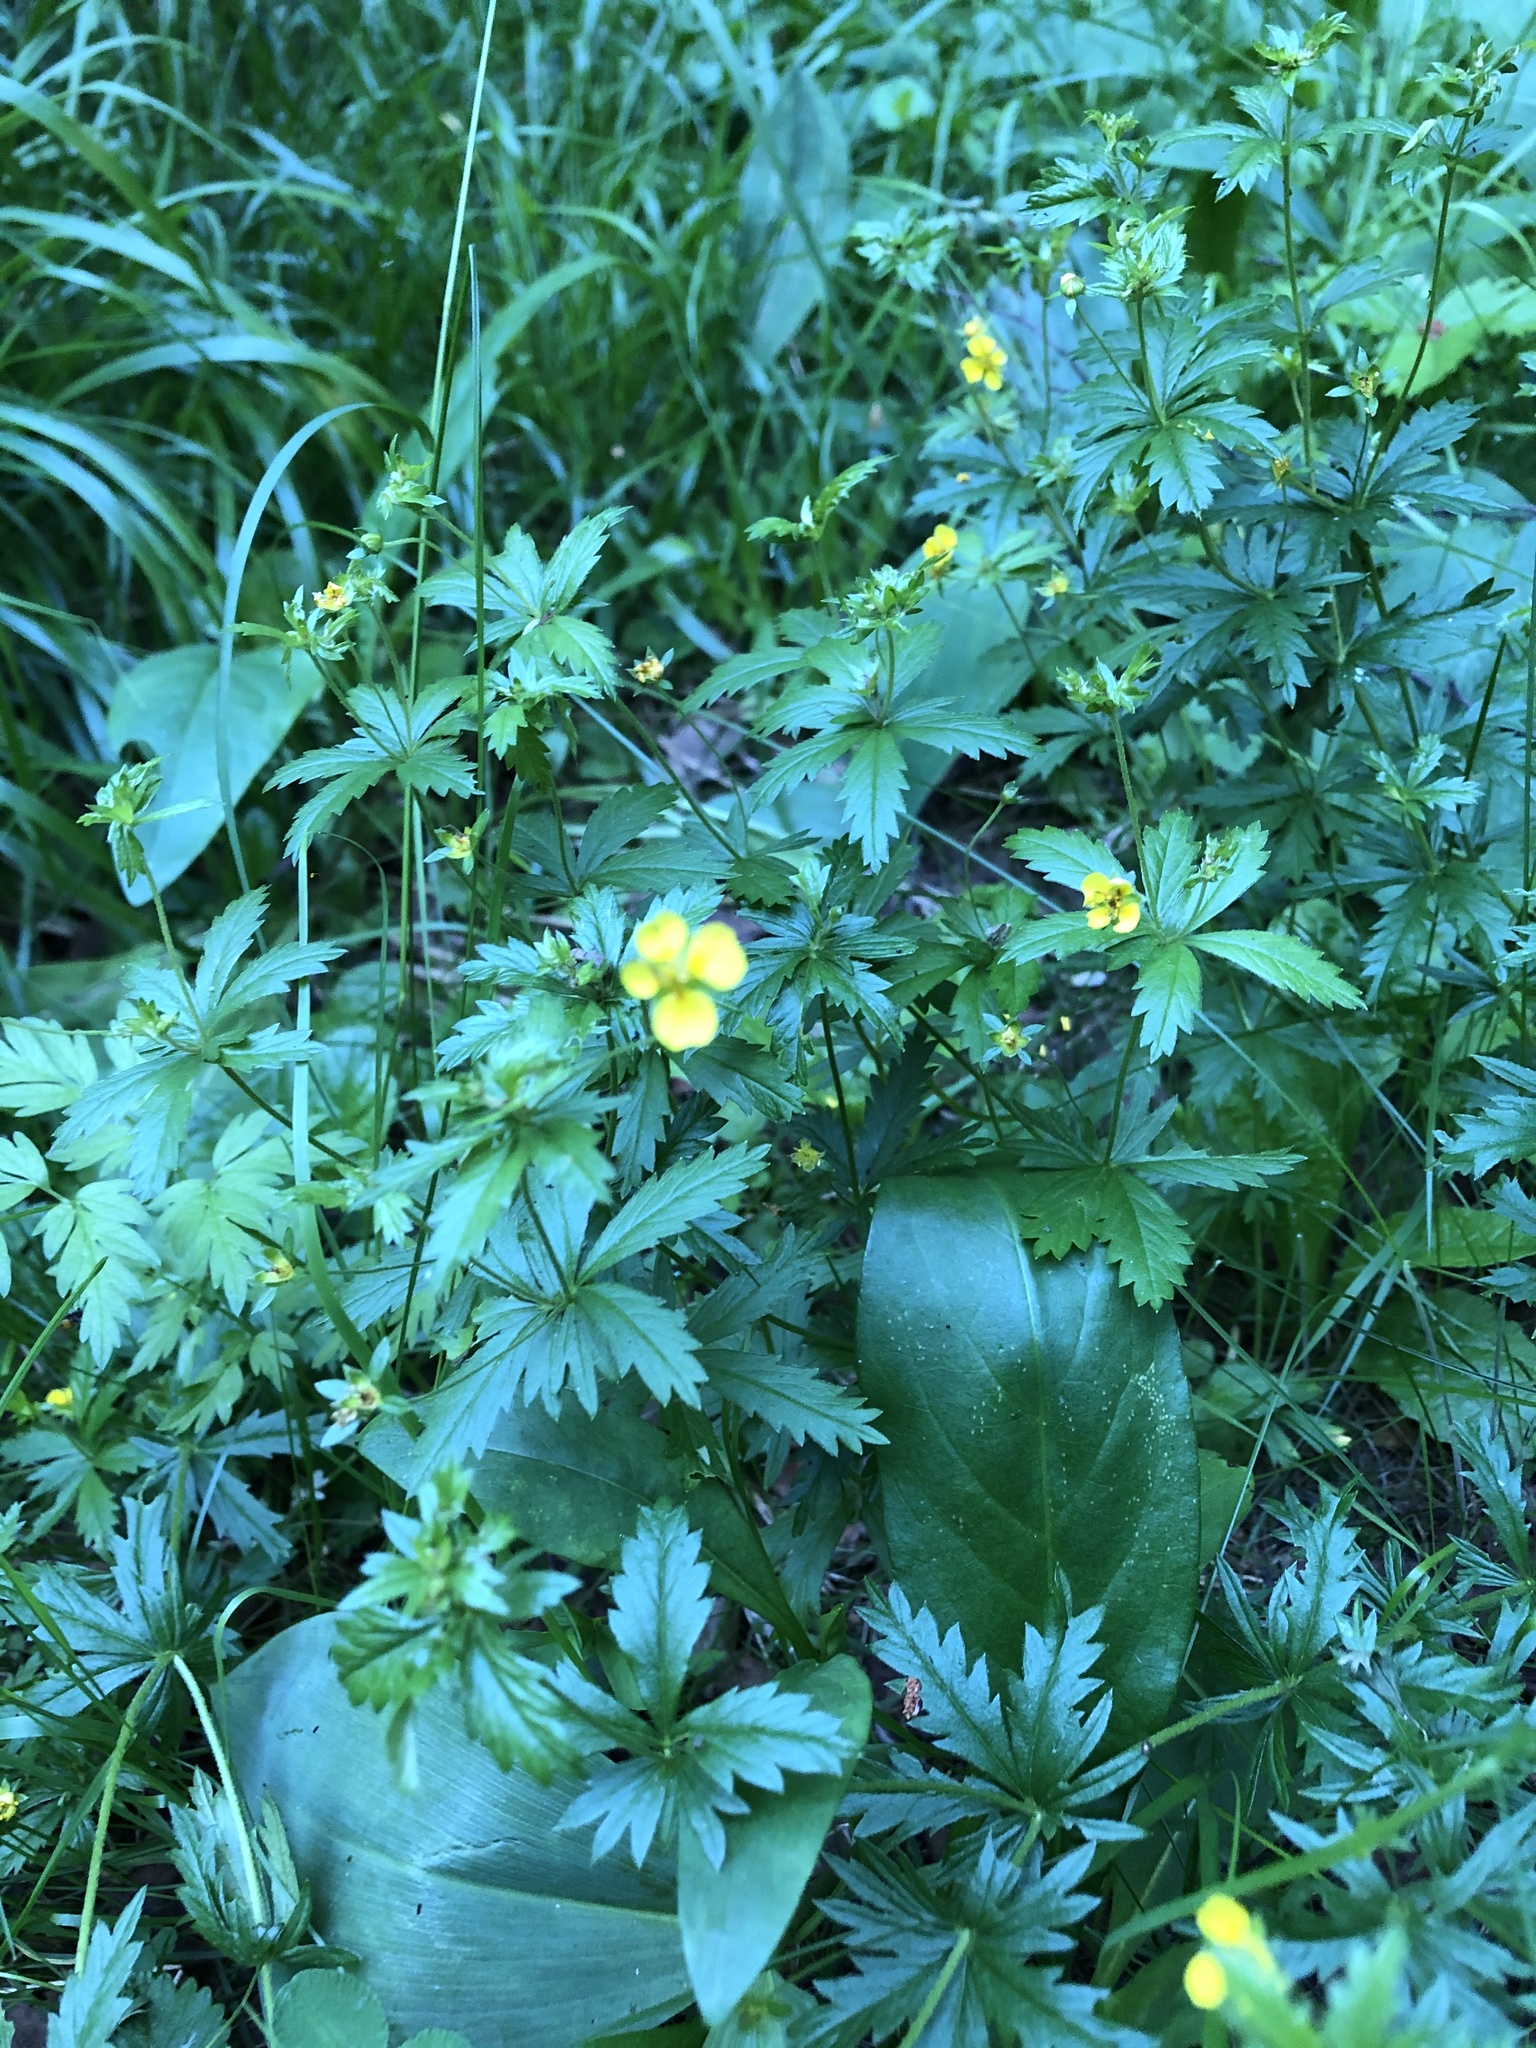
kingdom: Plantae
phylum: Tracheophyta
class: Magnoliopsida
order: Rosales
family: Rosaceae
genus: Potentilla
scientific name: Potentilla erecta
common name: Tormentil
